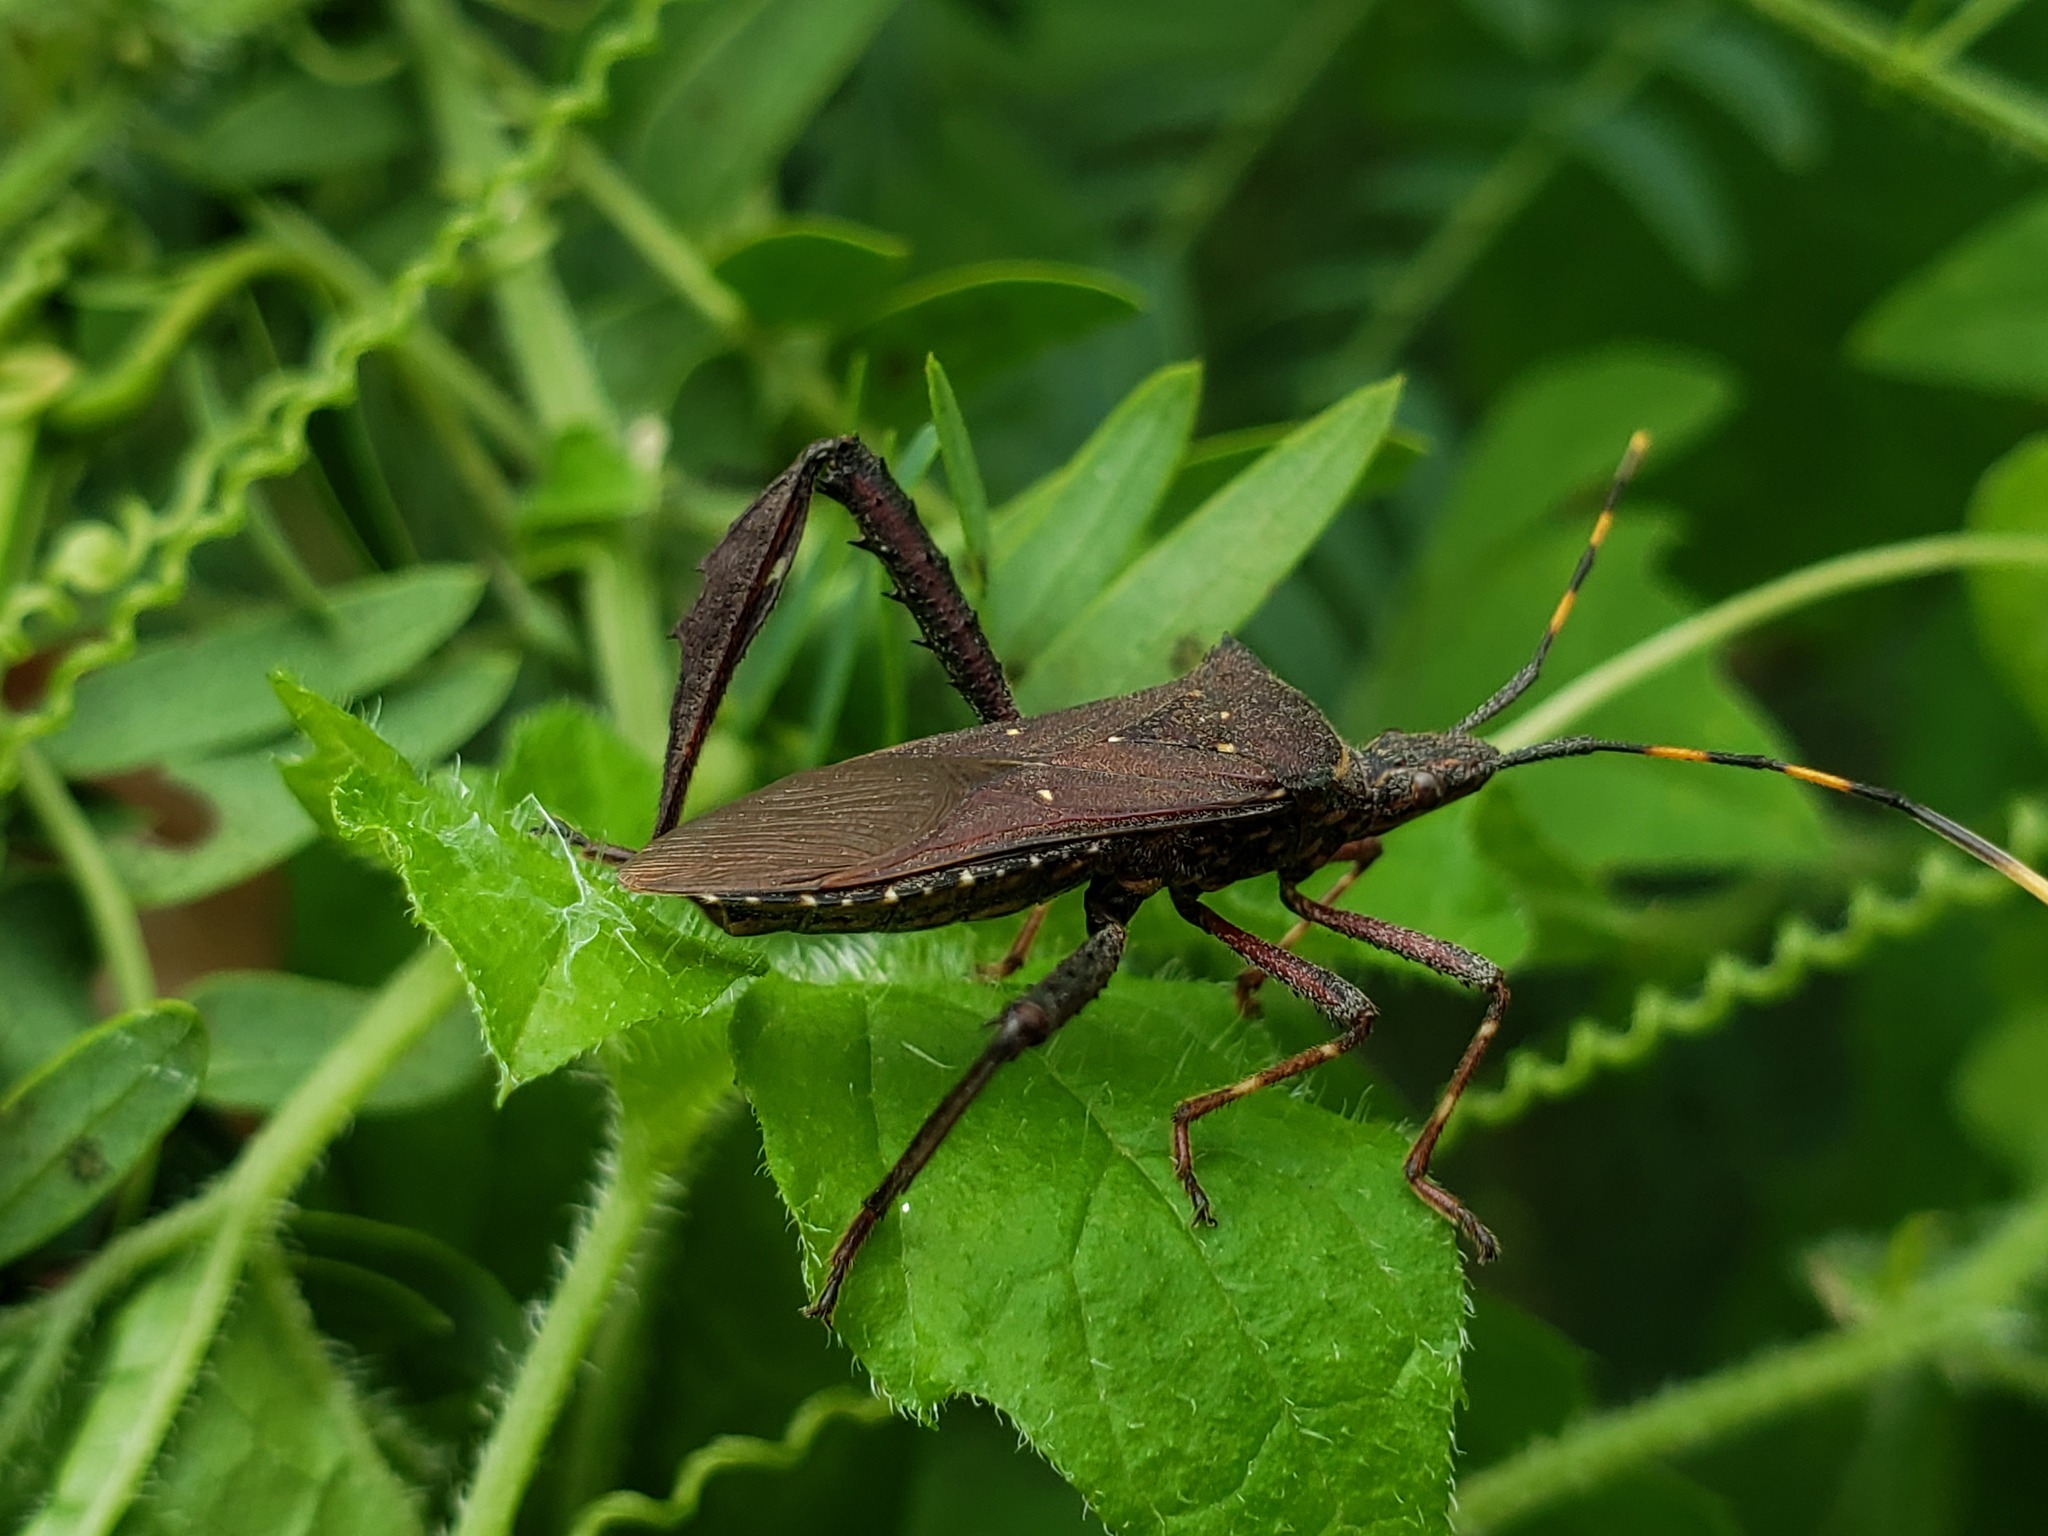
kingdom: Animalia
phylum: Arthropoda
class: Insecta
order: Hemiptera
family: Coreidae
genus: Leptoglossus
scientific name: Leptoglossus gonagra
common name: Citron bug
